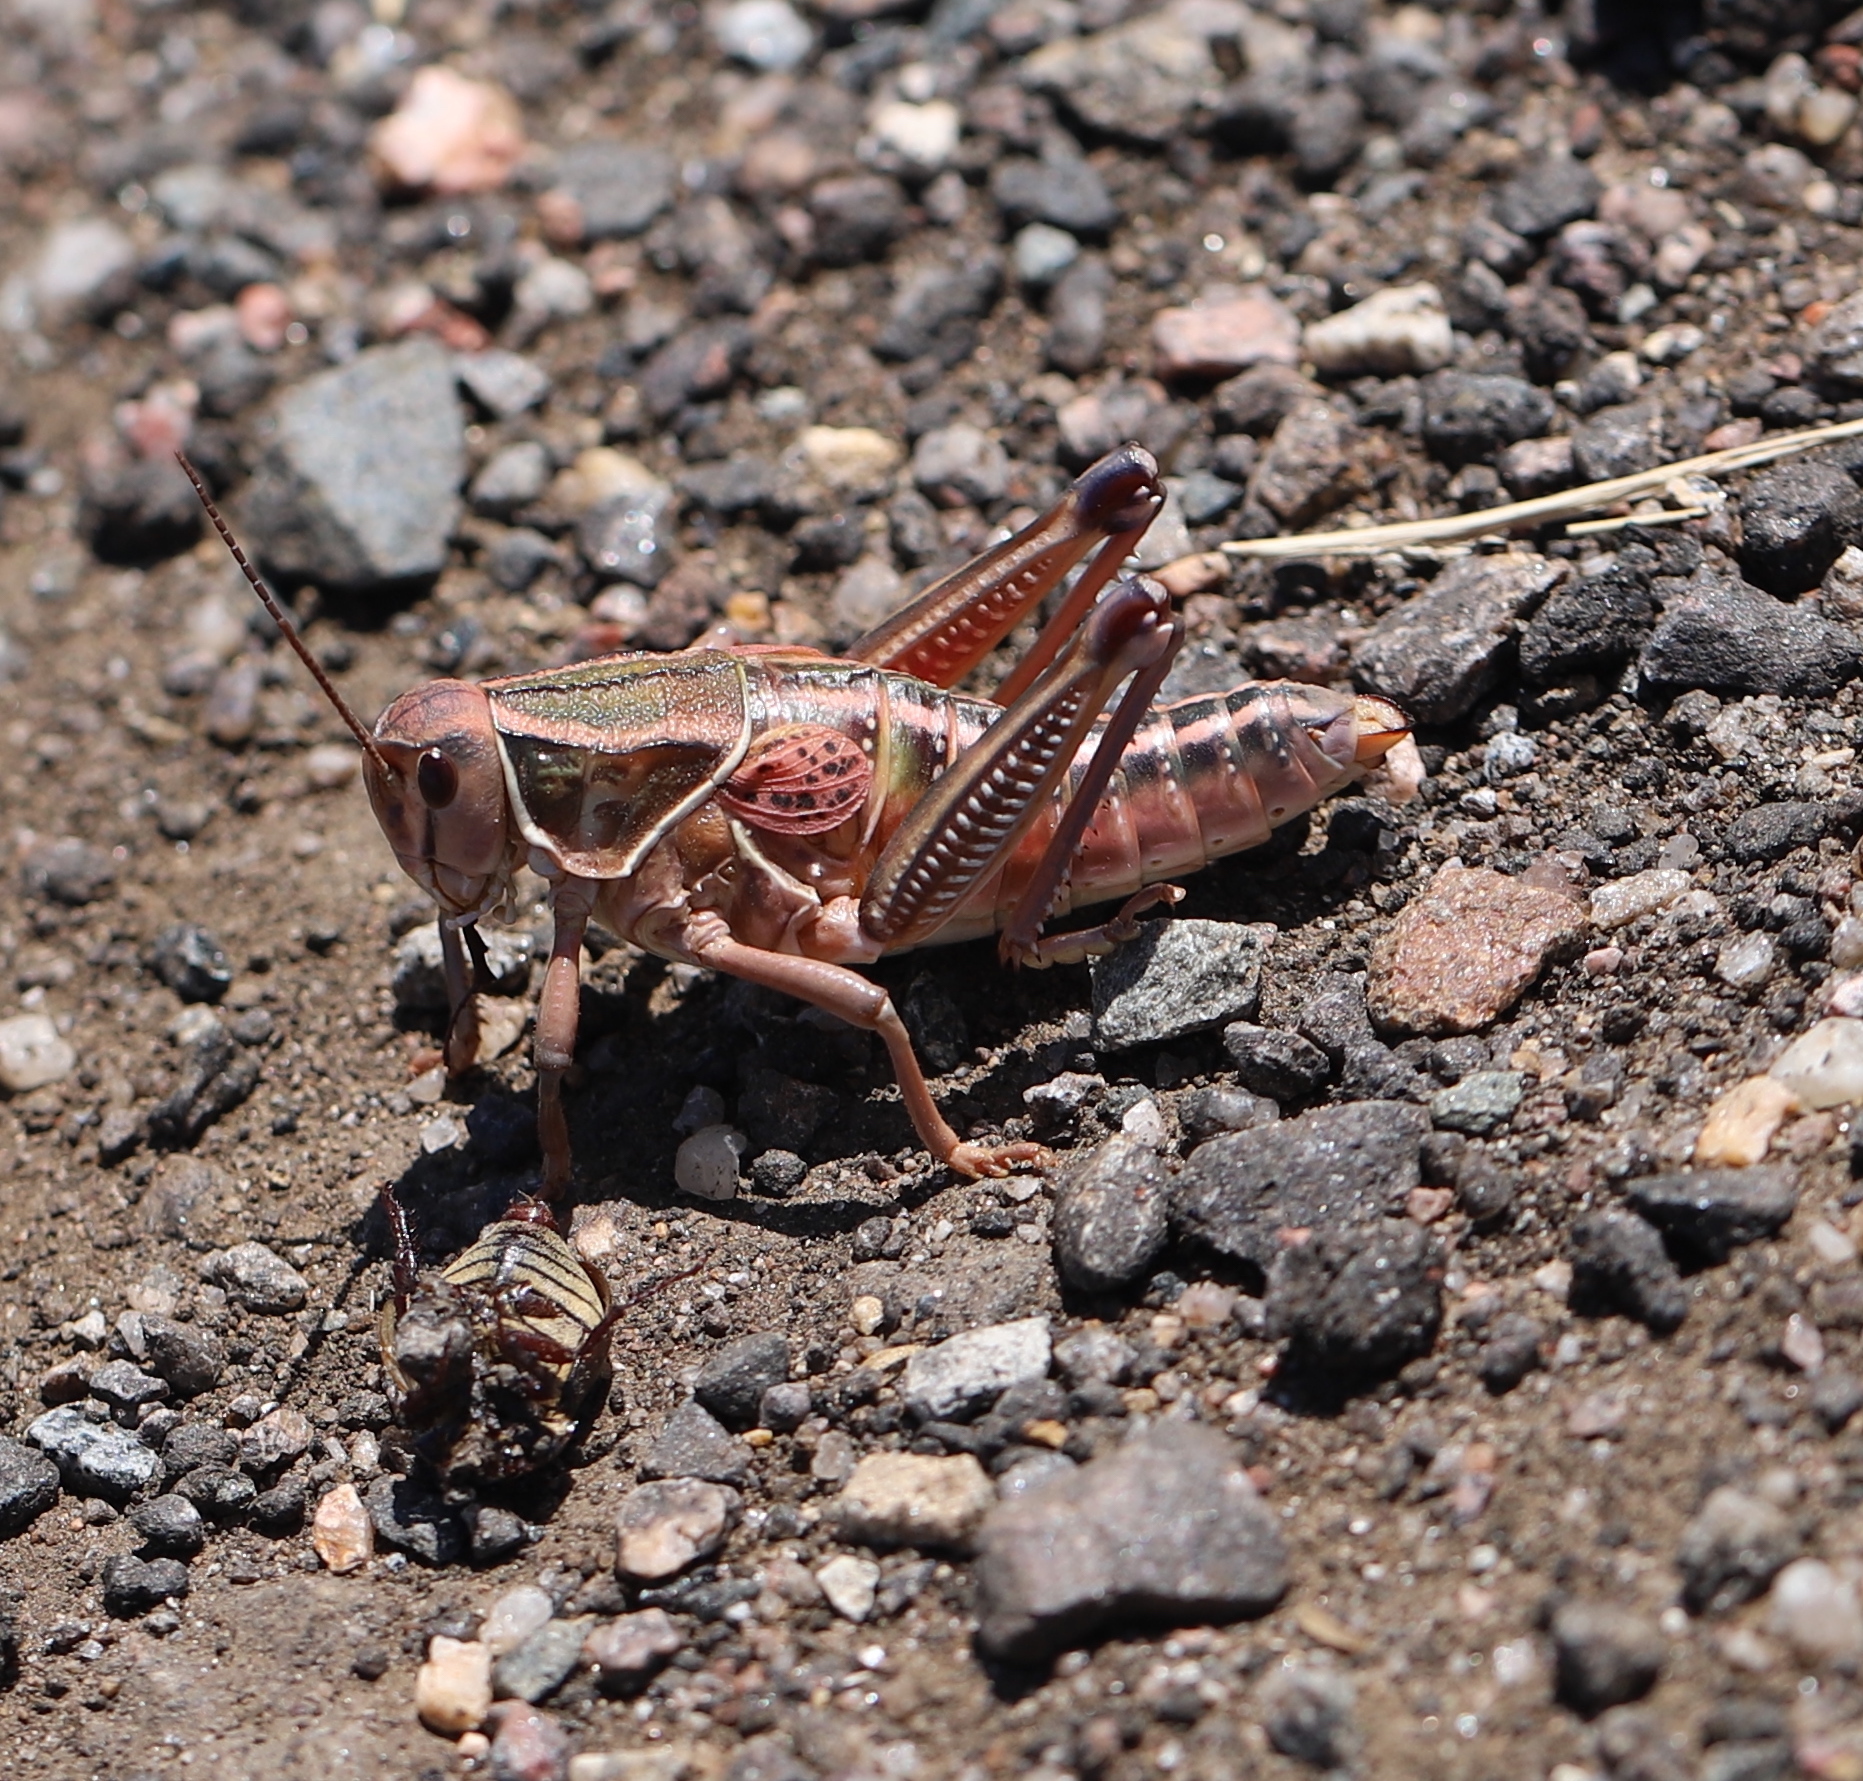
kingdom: Animalia
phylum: Arthropoda
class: Insecta
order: Orthoptera
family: Romaleidae
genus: Brachystola
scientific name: Brachystola magna
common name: Plains lubber grasshopper
